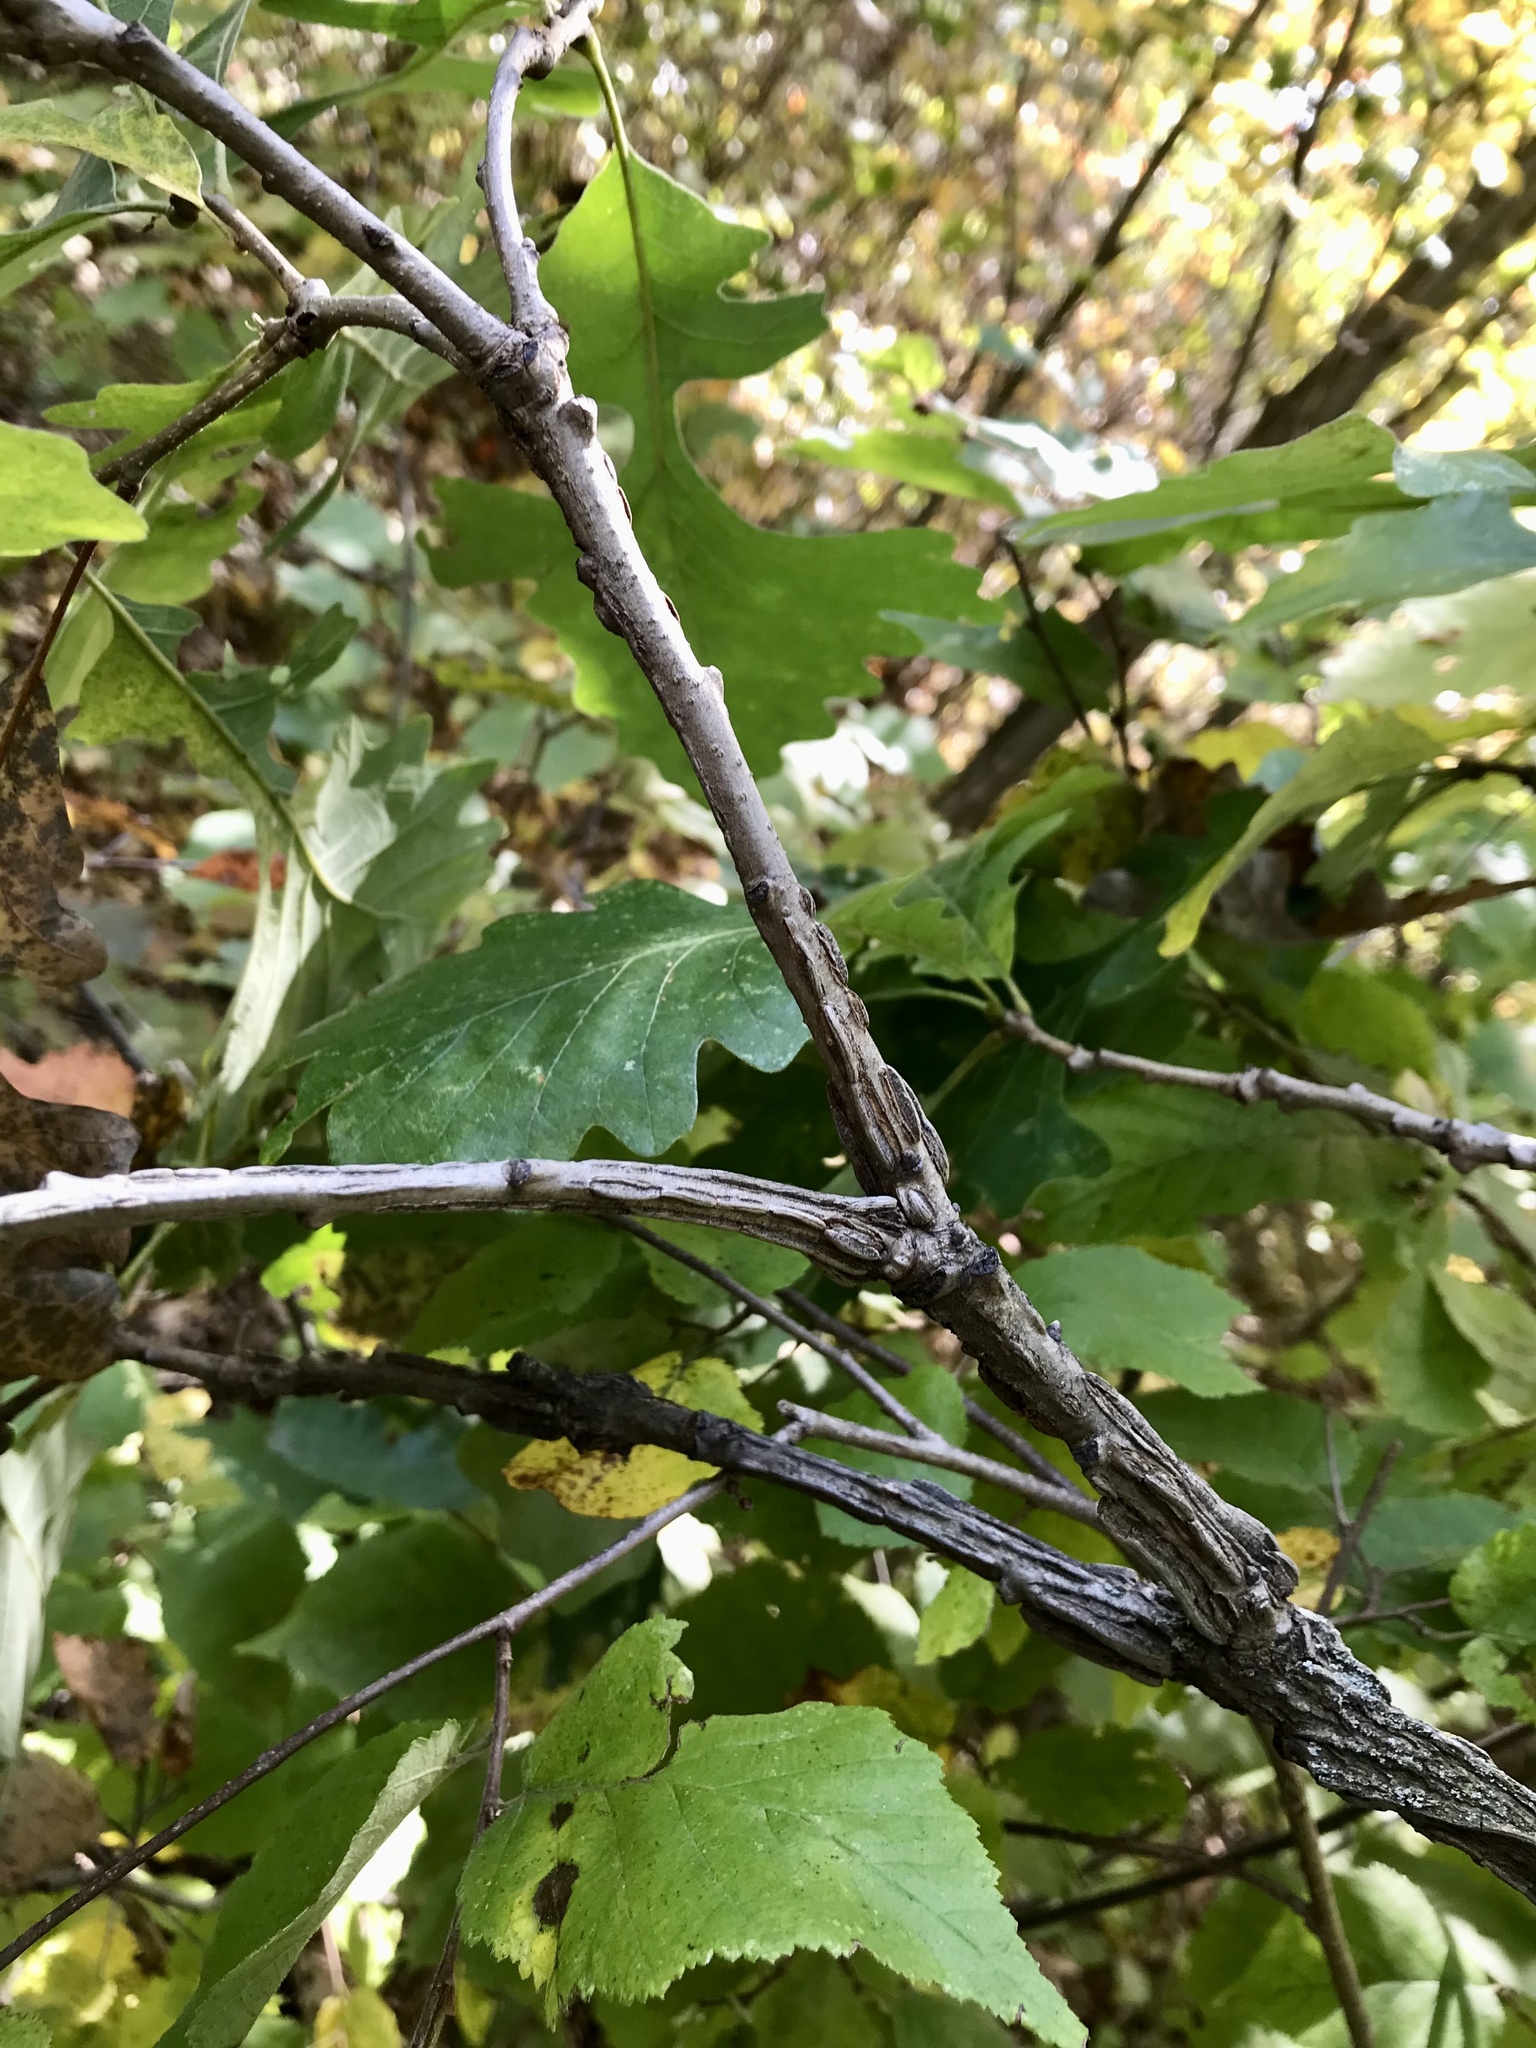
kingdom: Plantae
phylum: Tracheophyta
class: Magnoliopsida
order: Fagales
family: Fagaceae
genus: Quercus
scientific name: Quercus macrocarpa
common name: Bur oak
